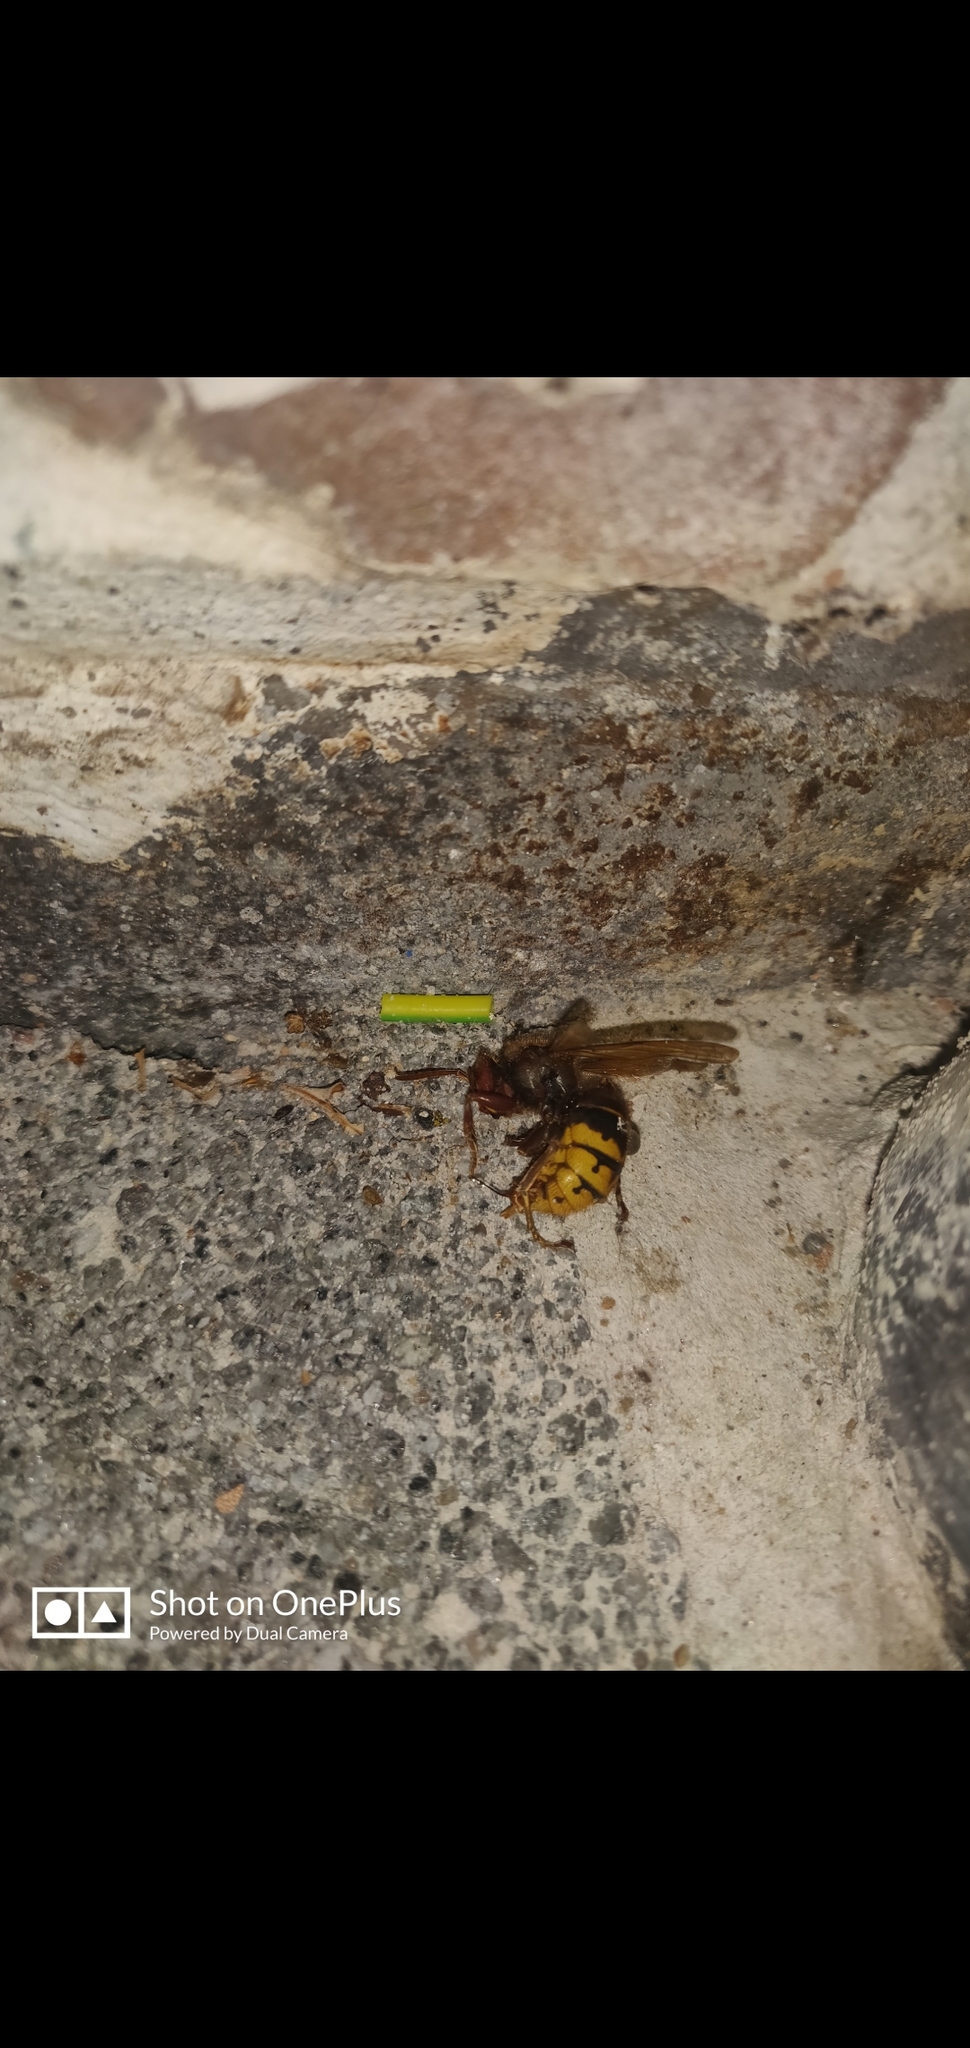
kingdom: Animalia
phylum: Arthropoda
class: Insecta
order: Hymenoptera
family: Vespidae
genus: Vespa
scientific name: Vespa crabro
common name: Hornet
